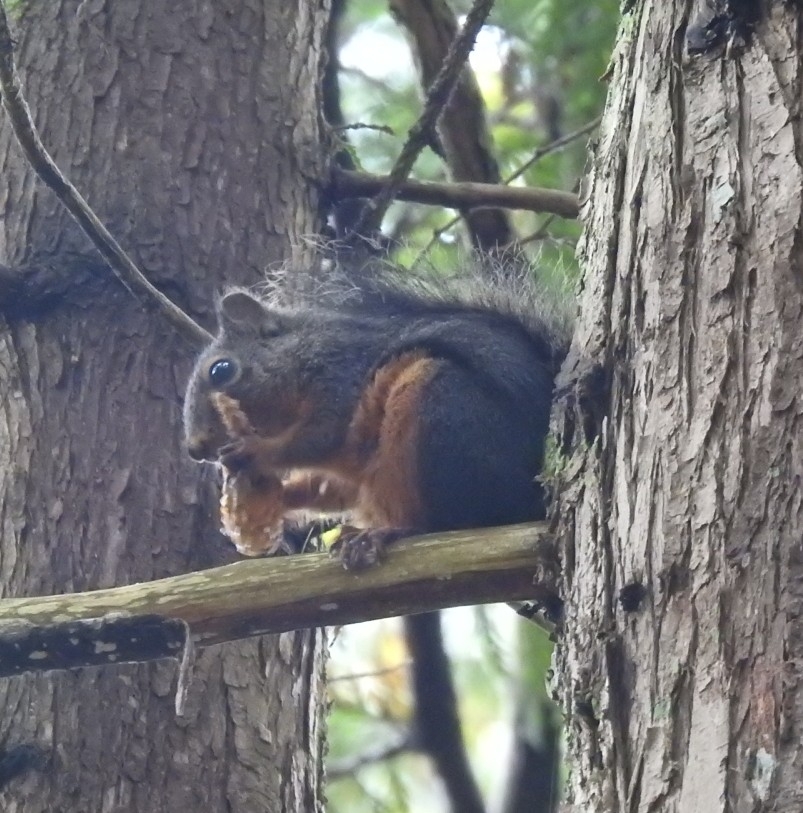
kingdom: Animalia
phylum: Chordata
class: Mammalia
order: Rodentia
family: Sciuridae
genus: Tamiasciurus
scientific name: Tamiasciurus douglasii
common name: Douglas's squirrel
